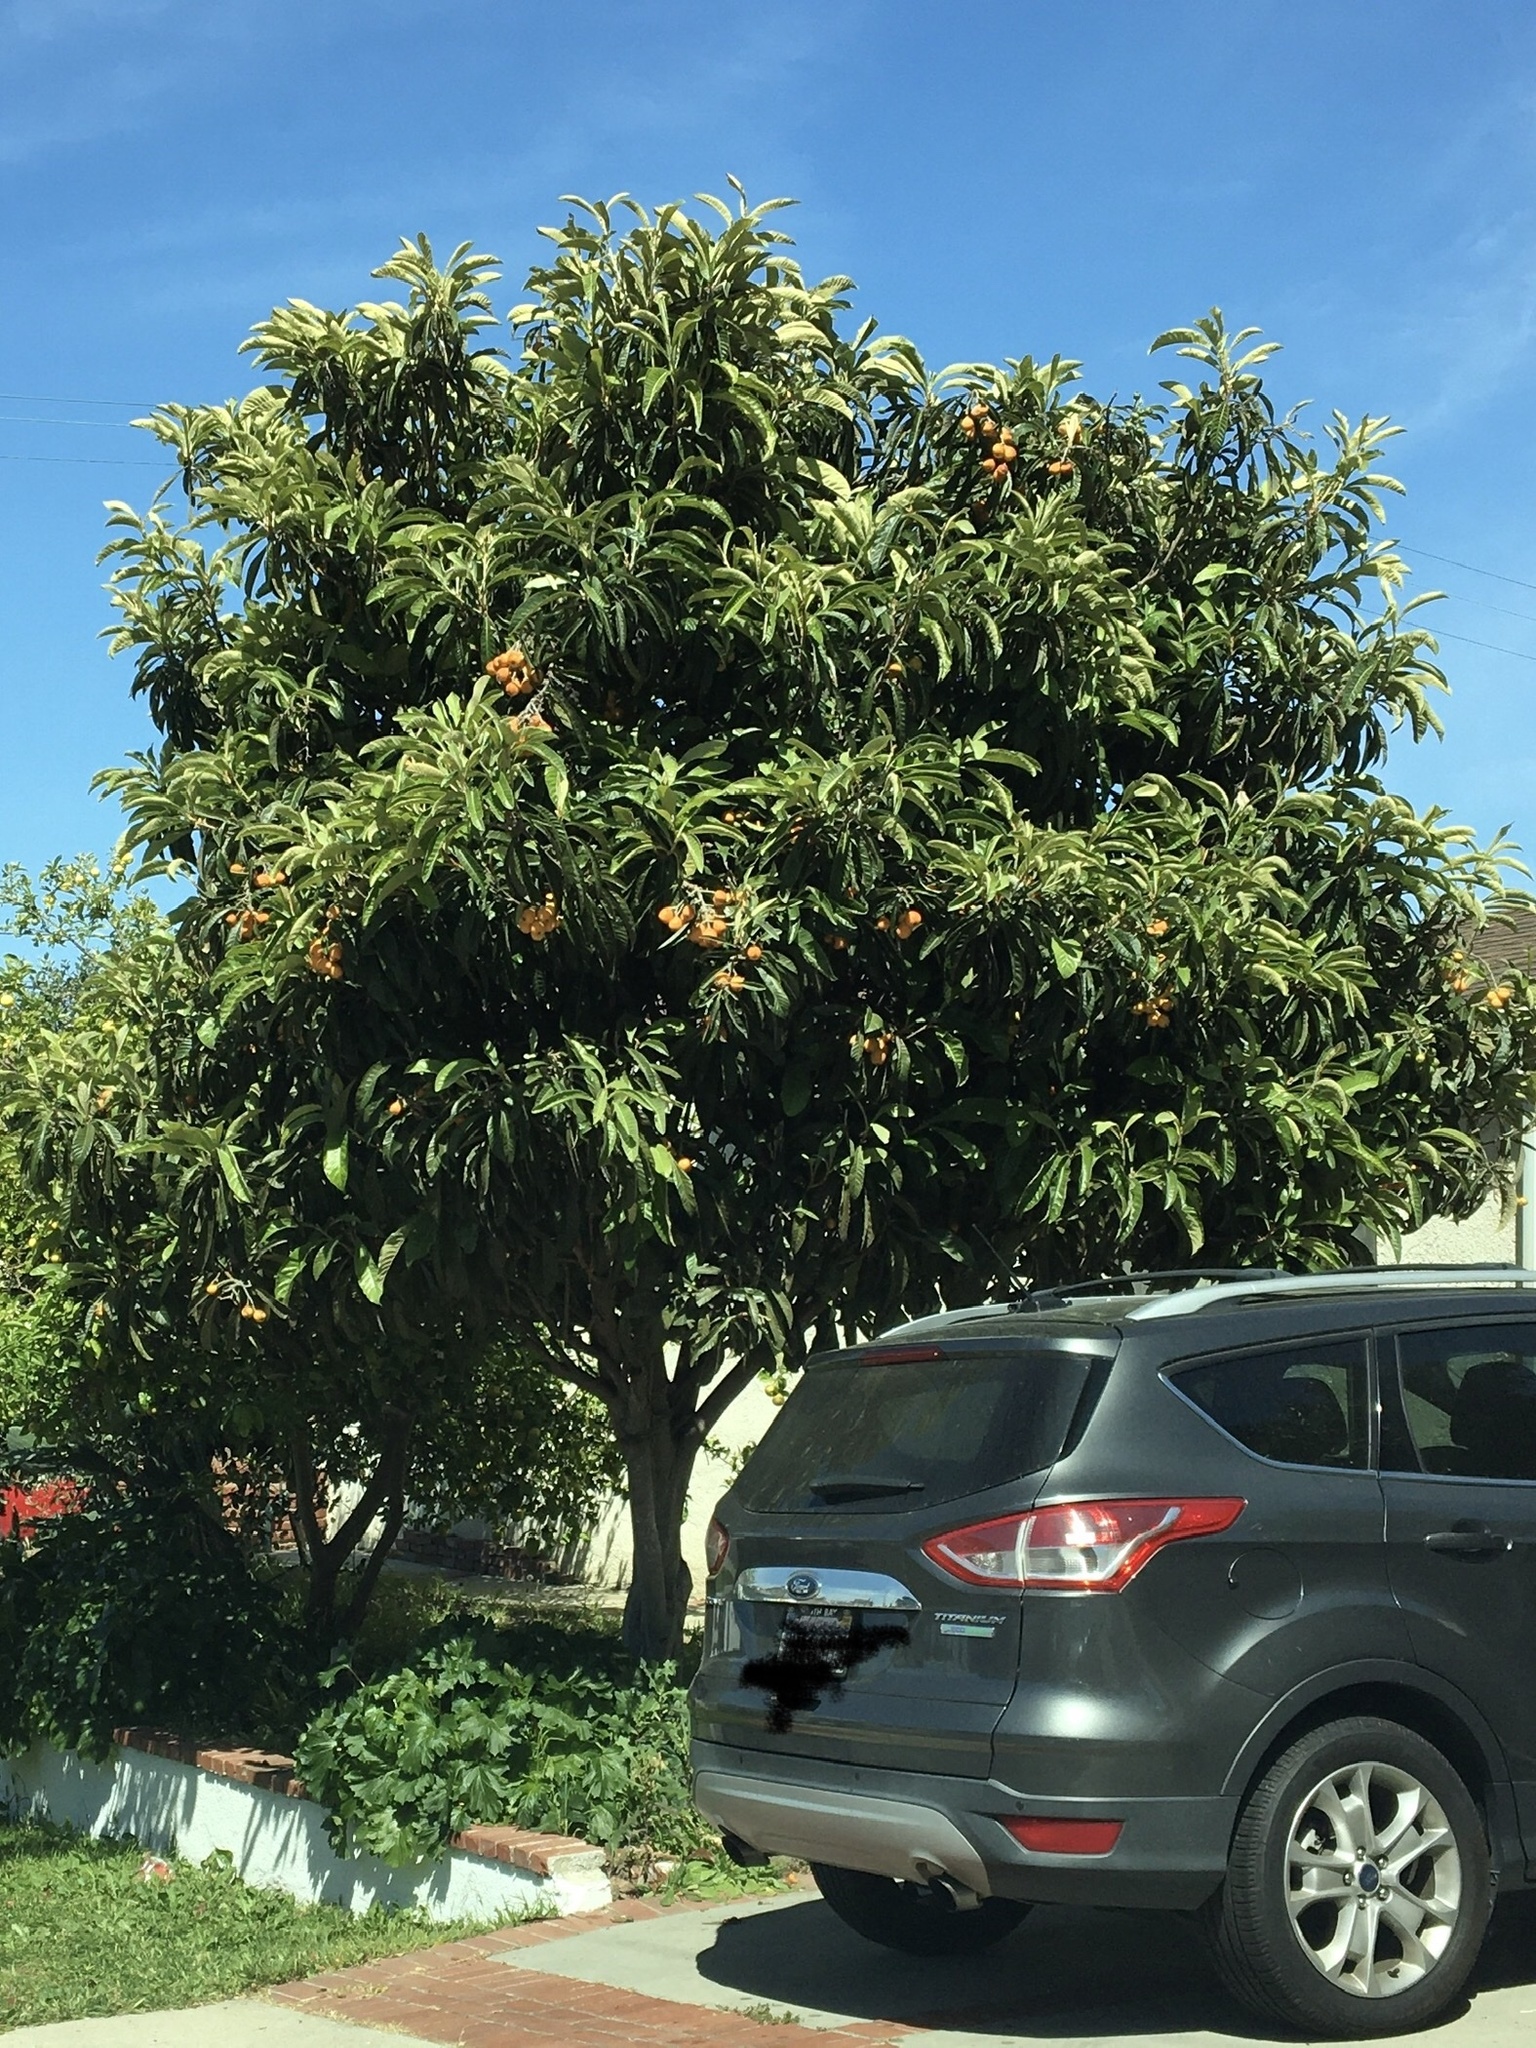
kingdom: Plantae
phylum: Tracheophyta
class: Magnoliopsida
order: Rosales
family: Rosaceae
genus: Rhaphiolepis
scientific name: Rhaphiolepis bibas
